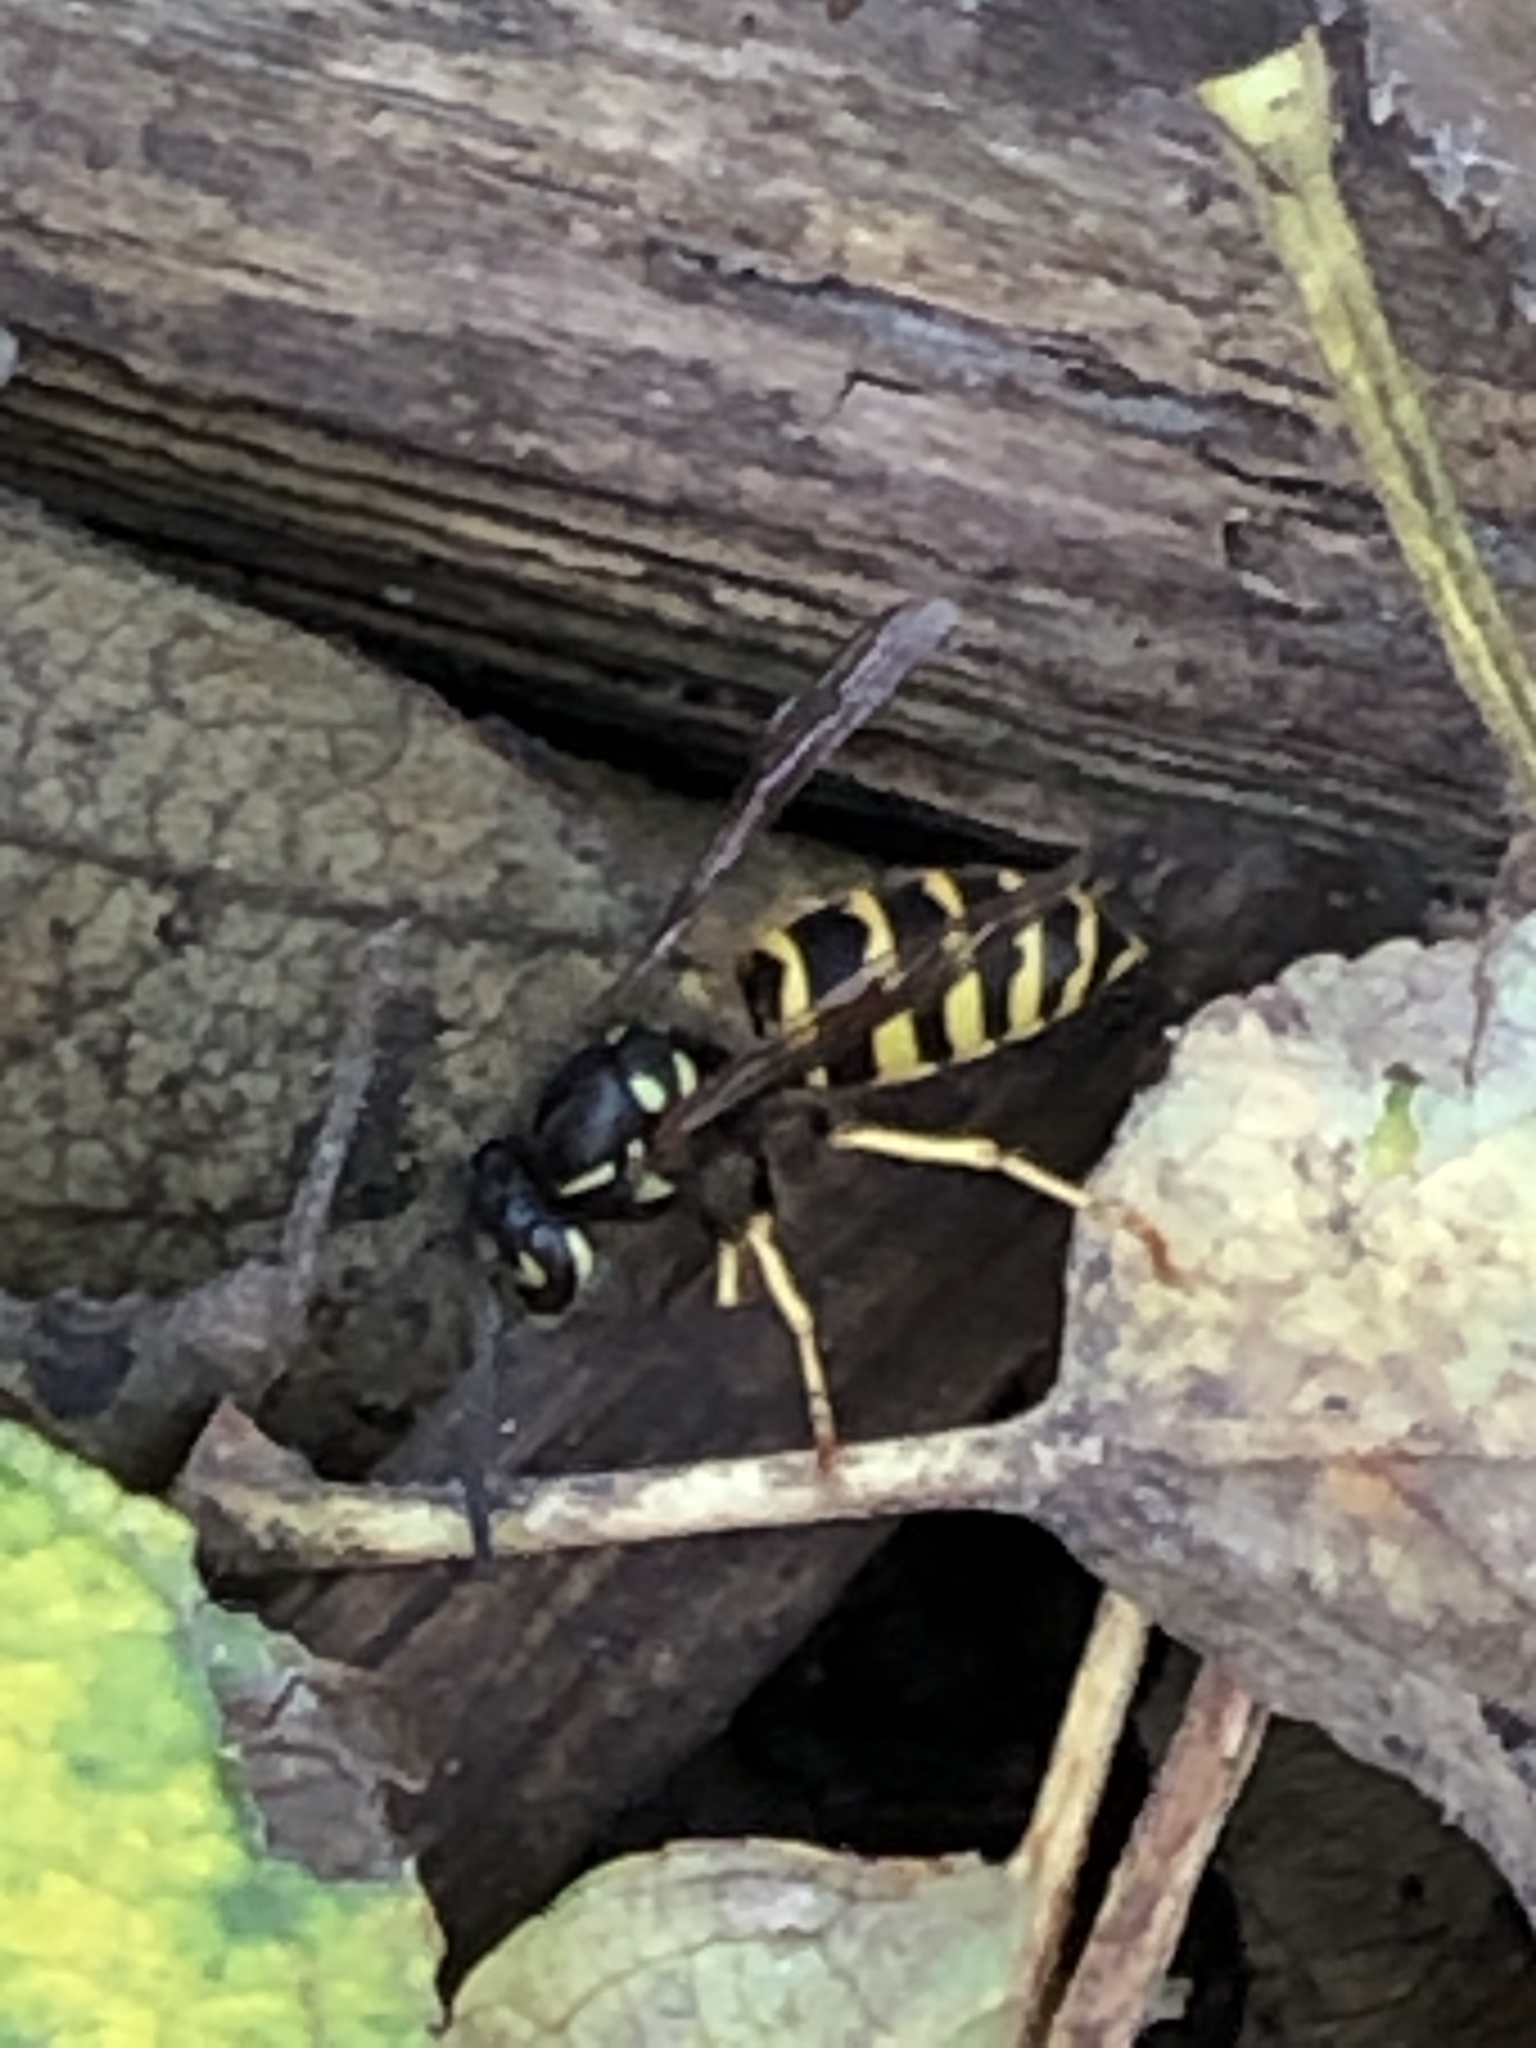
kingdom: Animalia
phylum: Arthropoda
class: Insecta
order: Hymenoptera
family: Vespidae
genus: Vespula
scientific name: Vespula alascensis
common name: Alaska yellowjacket
